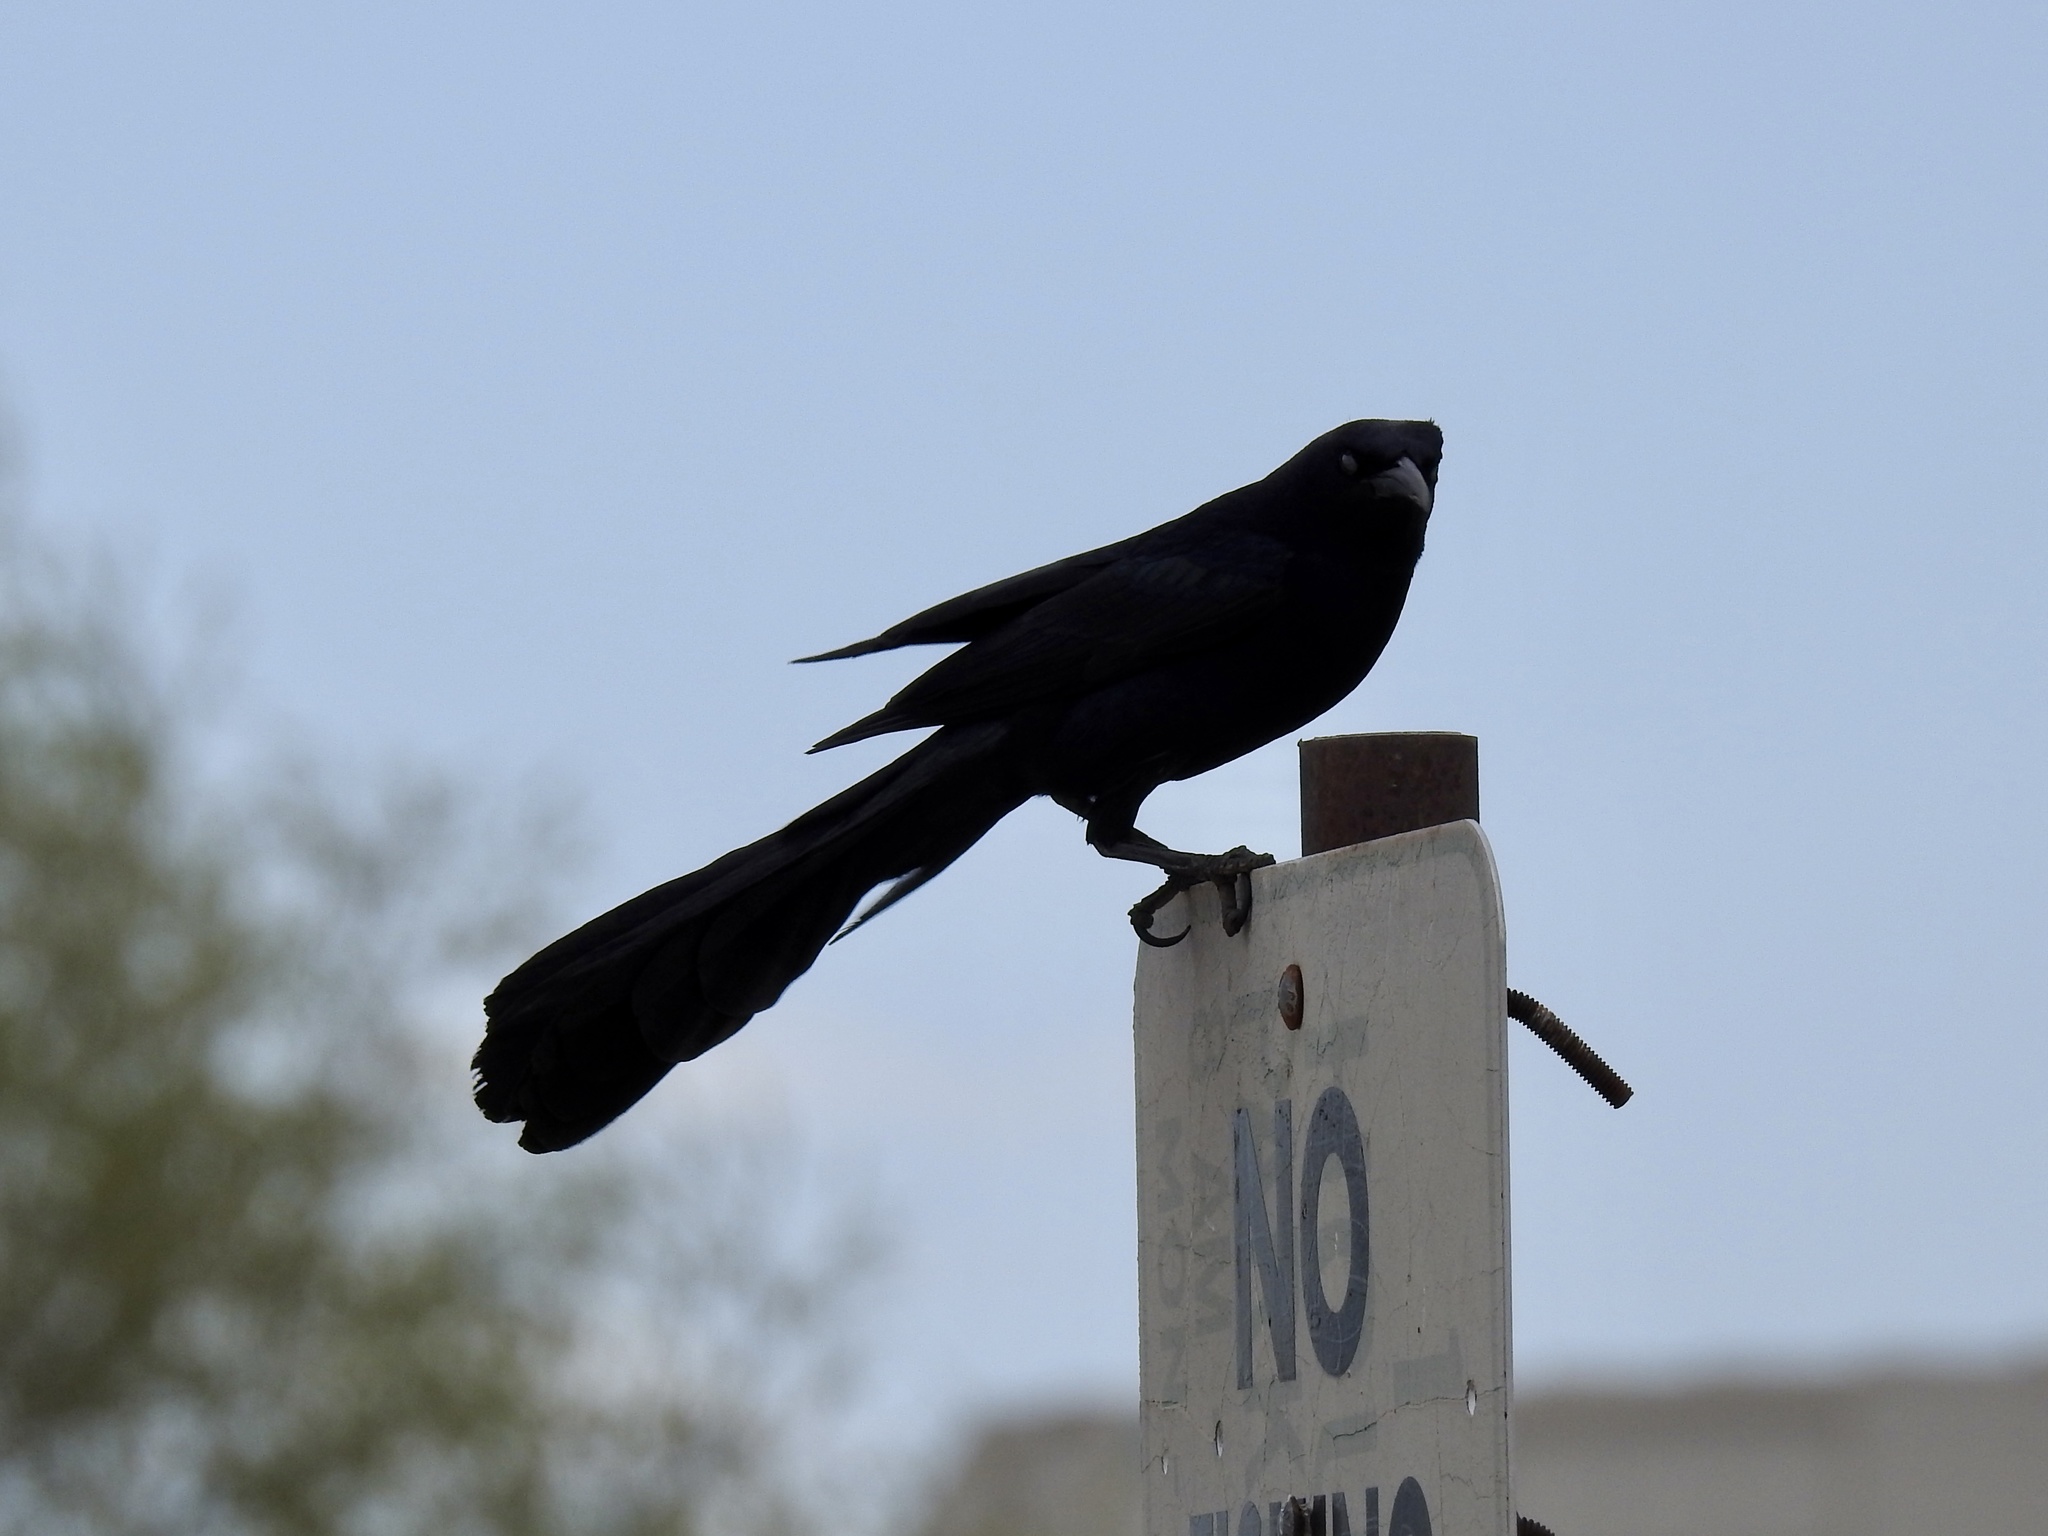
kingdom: Animalia
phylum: Chordata
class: Aves
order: Passeriformes
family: Icteridae
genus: Quiscalus
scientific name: Quiscalus mexicanus
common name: Great-tailed grackle
